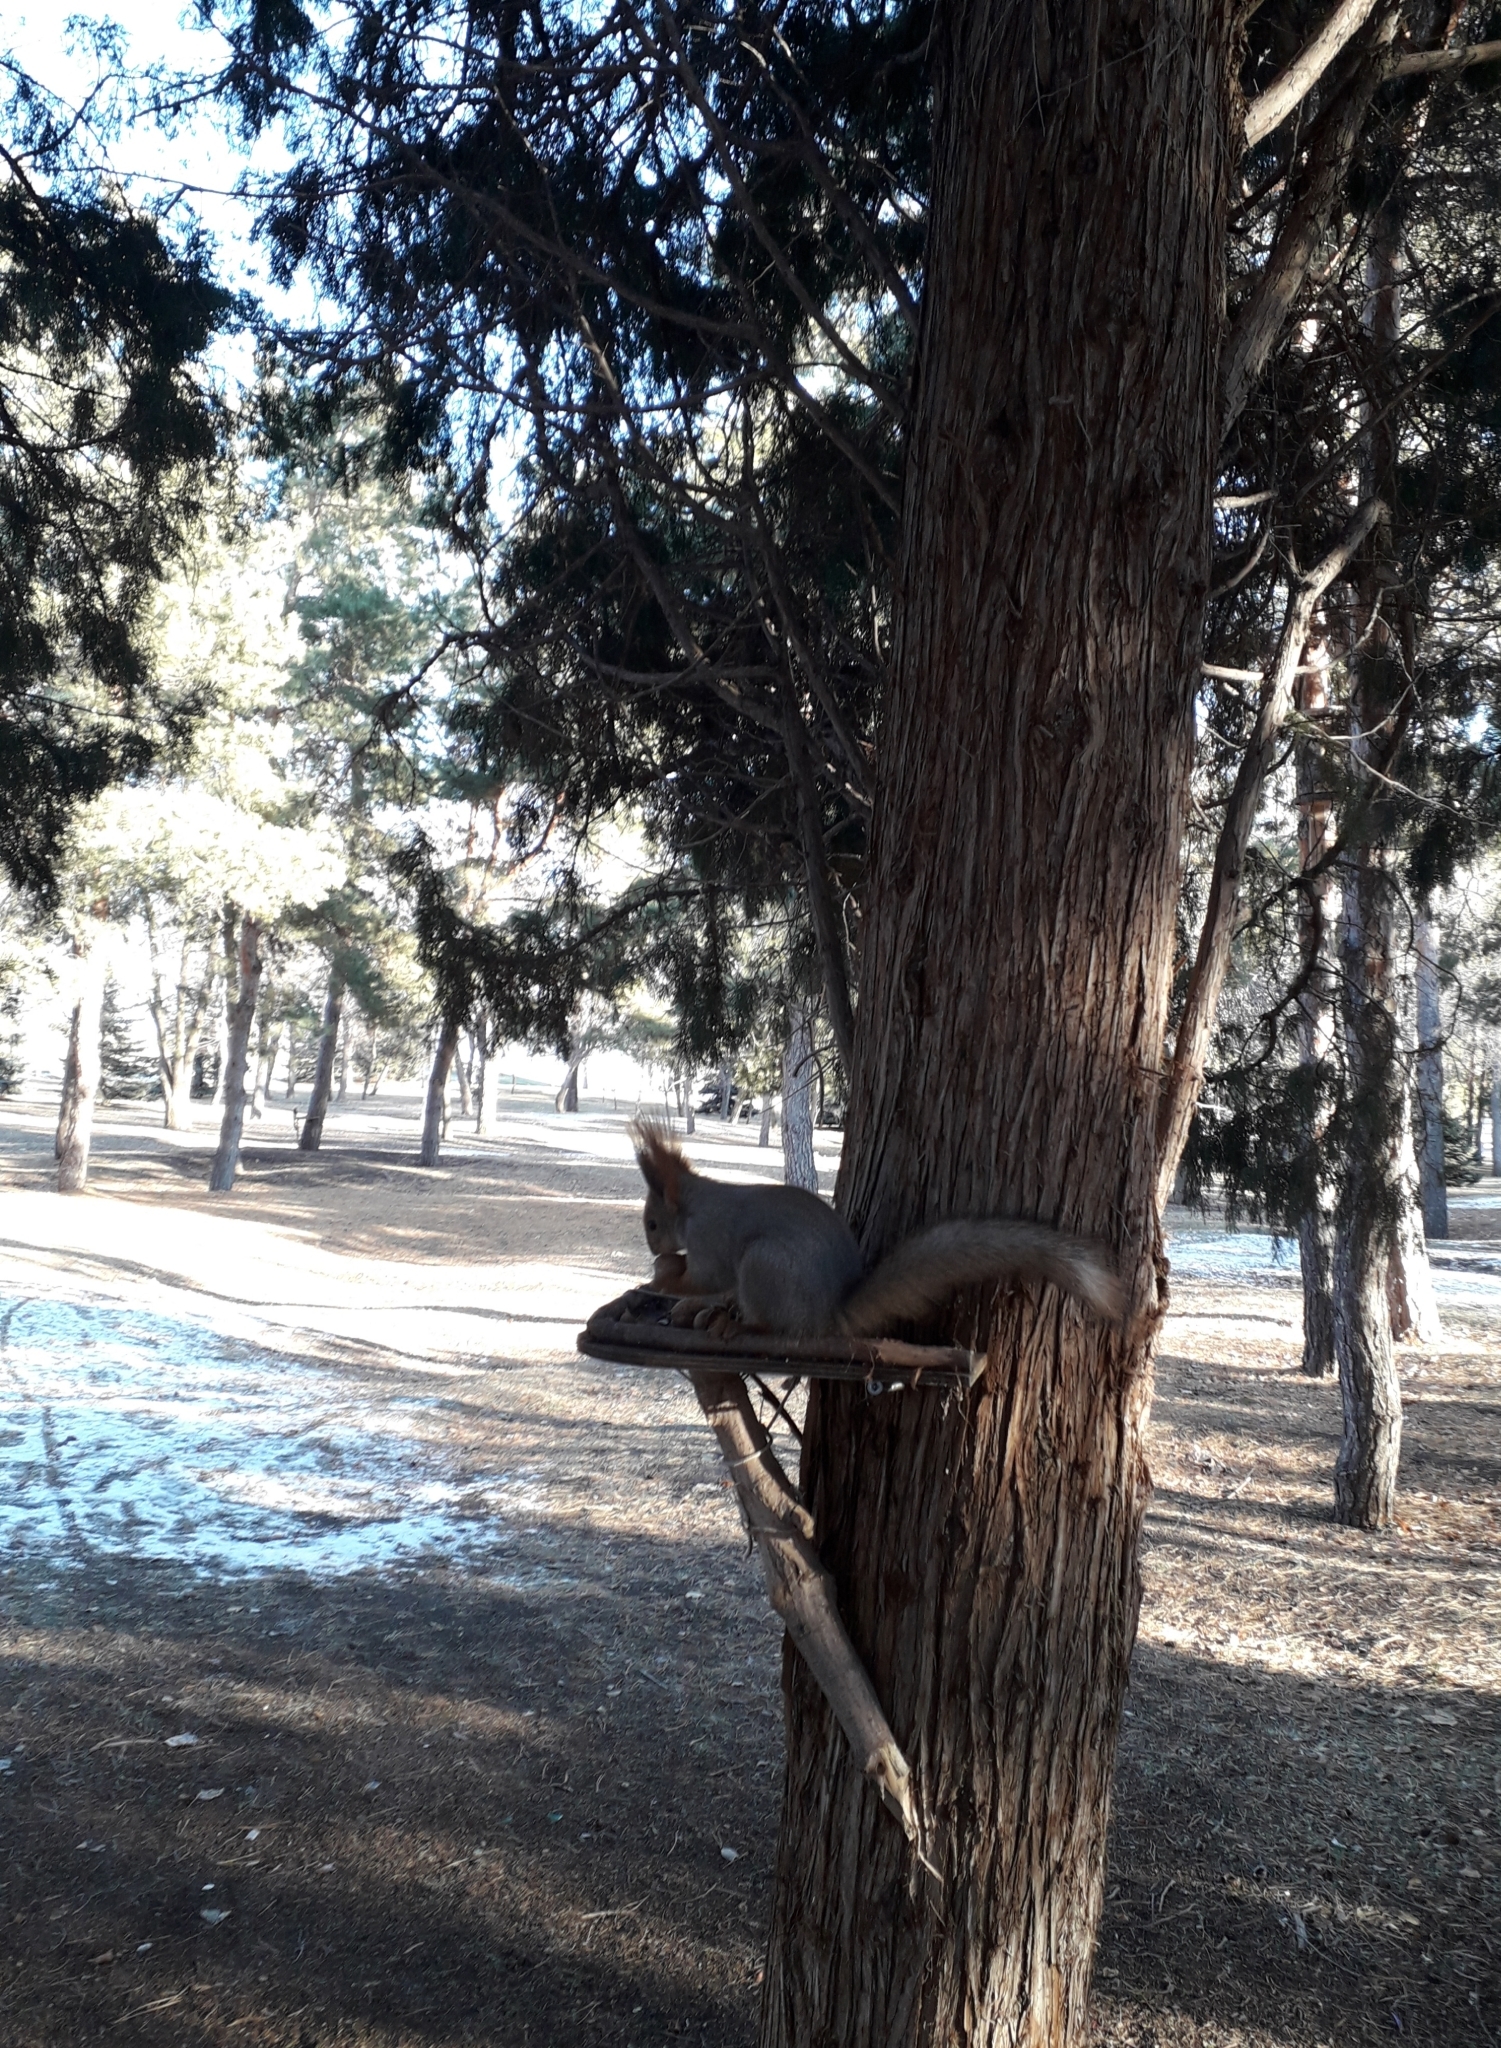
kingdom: Animalia
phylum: Chordata
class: Mammalia
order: Rodentia
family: Sciuridae
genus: Sciurus
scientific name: Sciurus vulgaris
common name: Eurasian red squirrel
